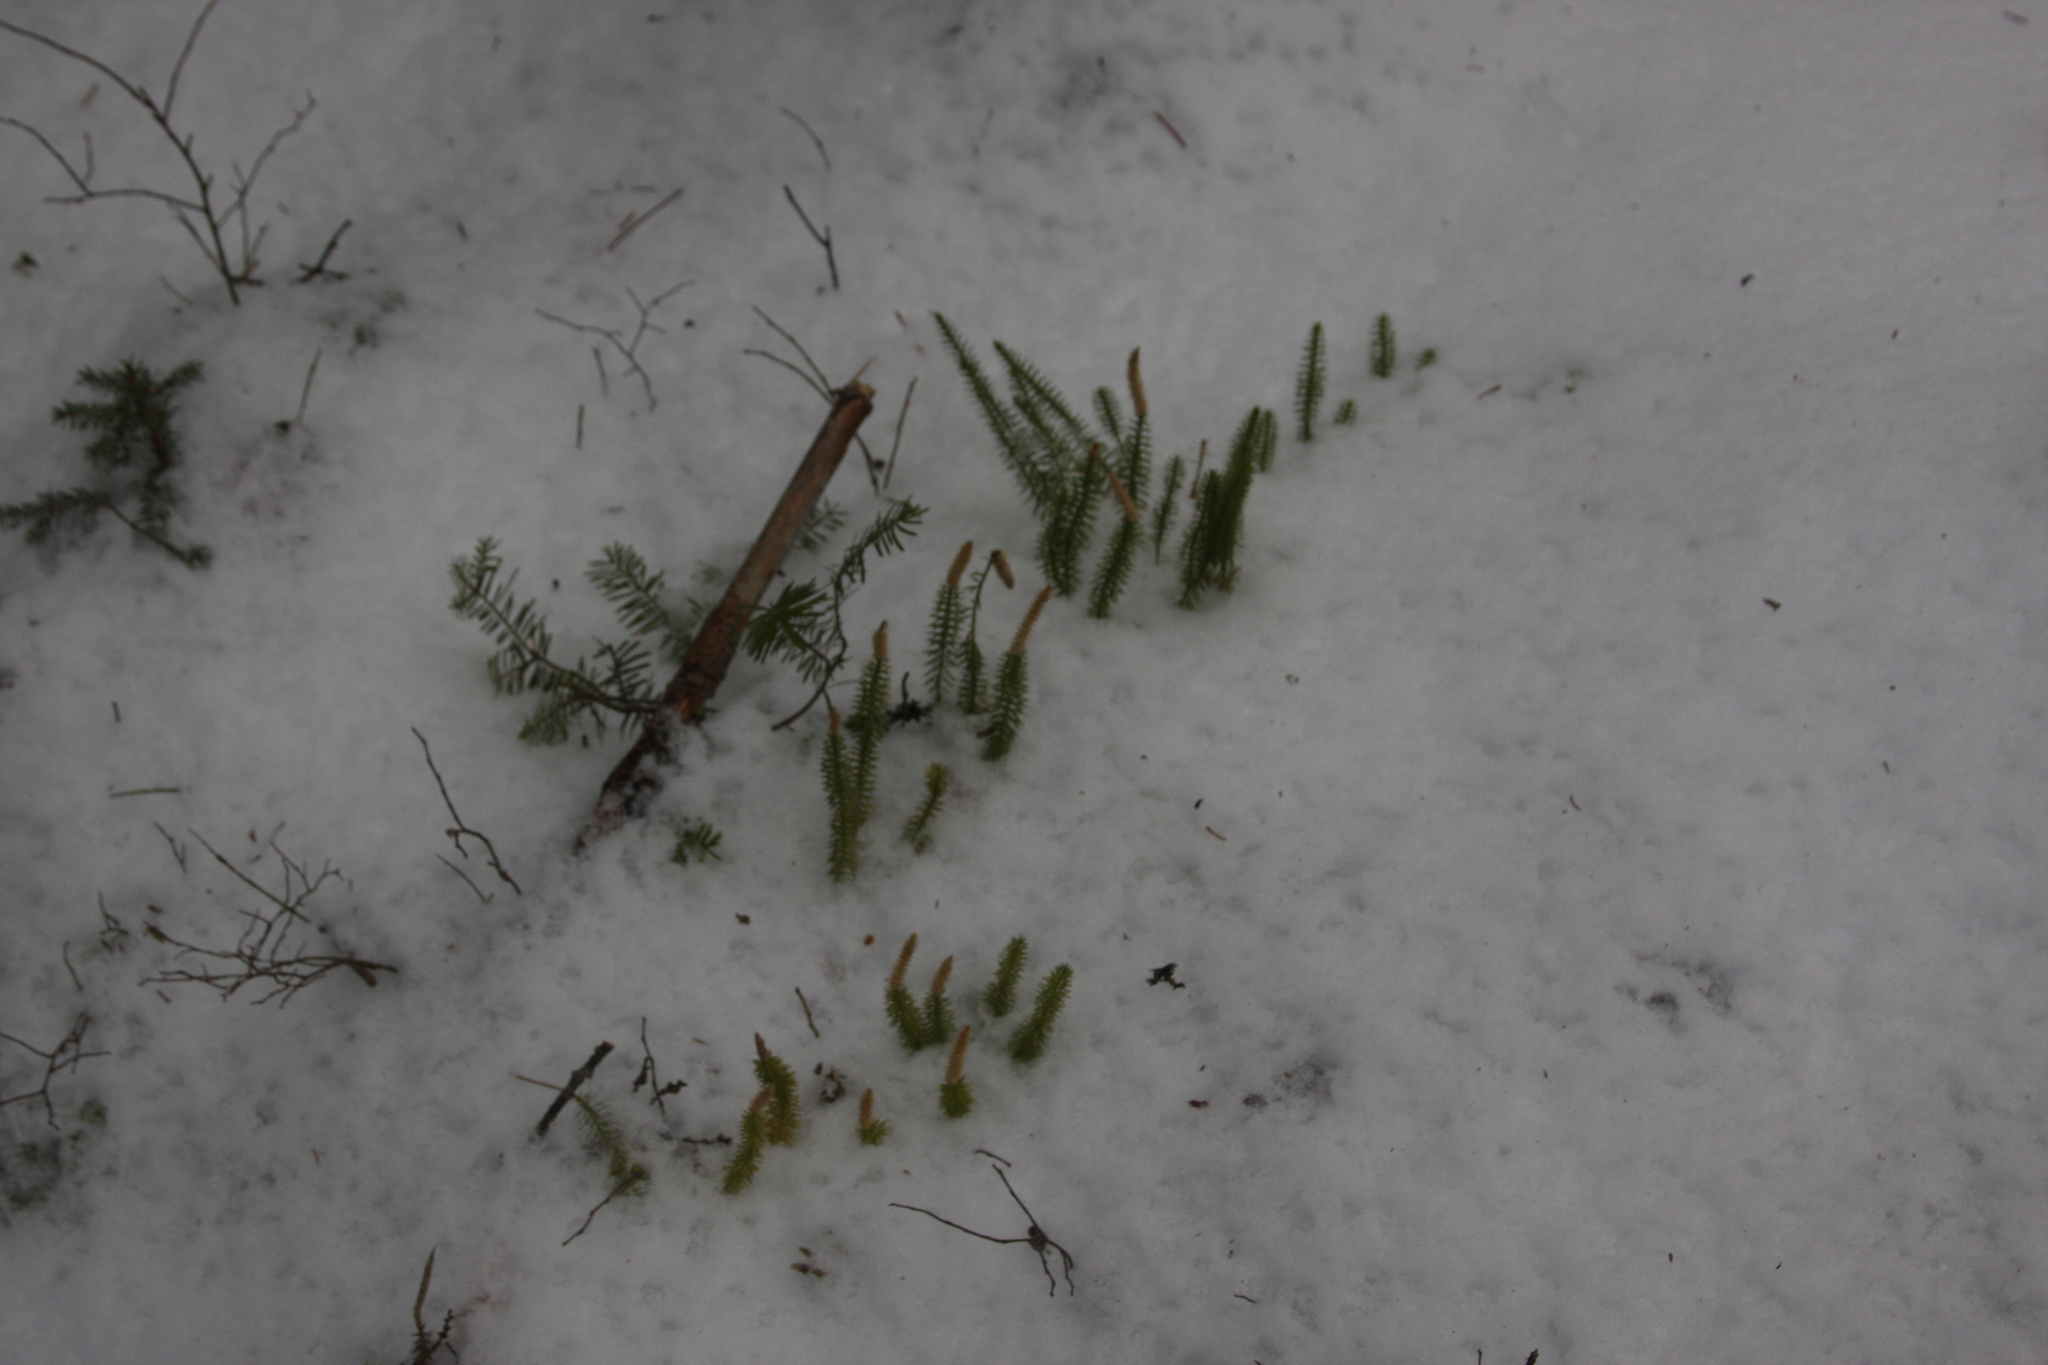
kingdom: Plantae
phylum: Tracheophyta
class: Lycopodiopsida
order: Lycopodiales
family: Lycopodiaceae
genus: Spinulum
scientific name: Spinulum annotinum
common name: Interrupted club-moss
